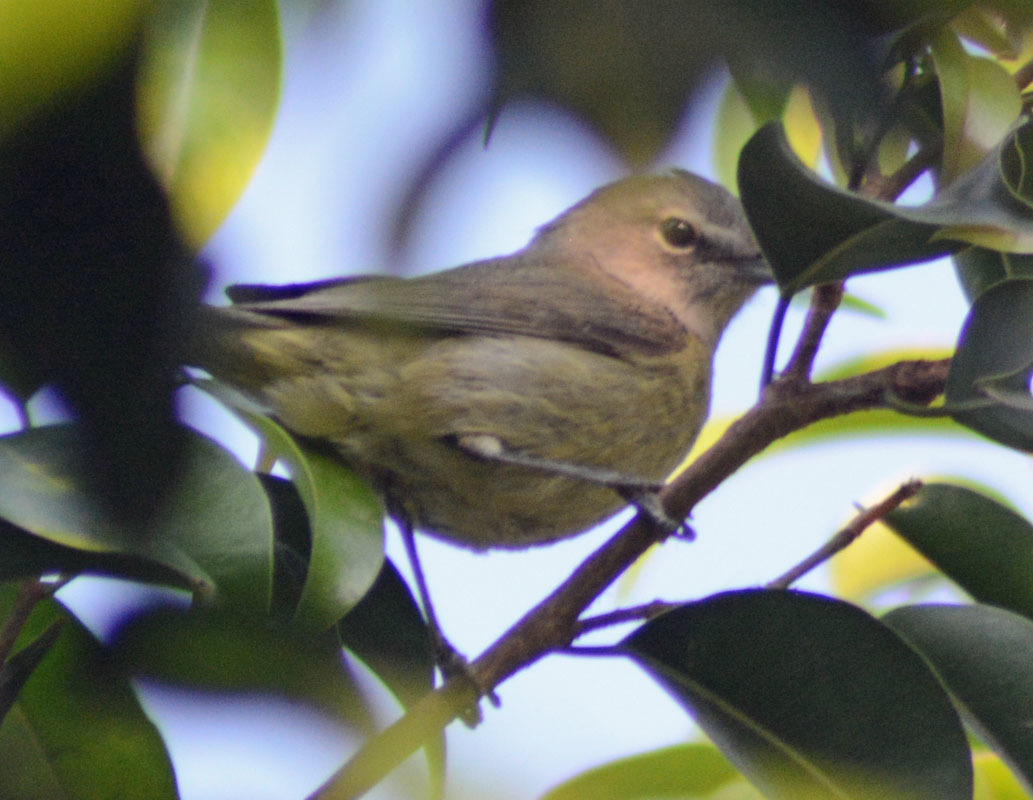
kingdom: Animalia
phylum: Chordata
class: Aves
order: Passeriformes
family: Parulidae
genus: Leiothlypis
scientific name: Leiothlypis celata
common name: Orange-crowned warbler
